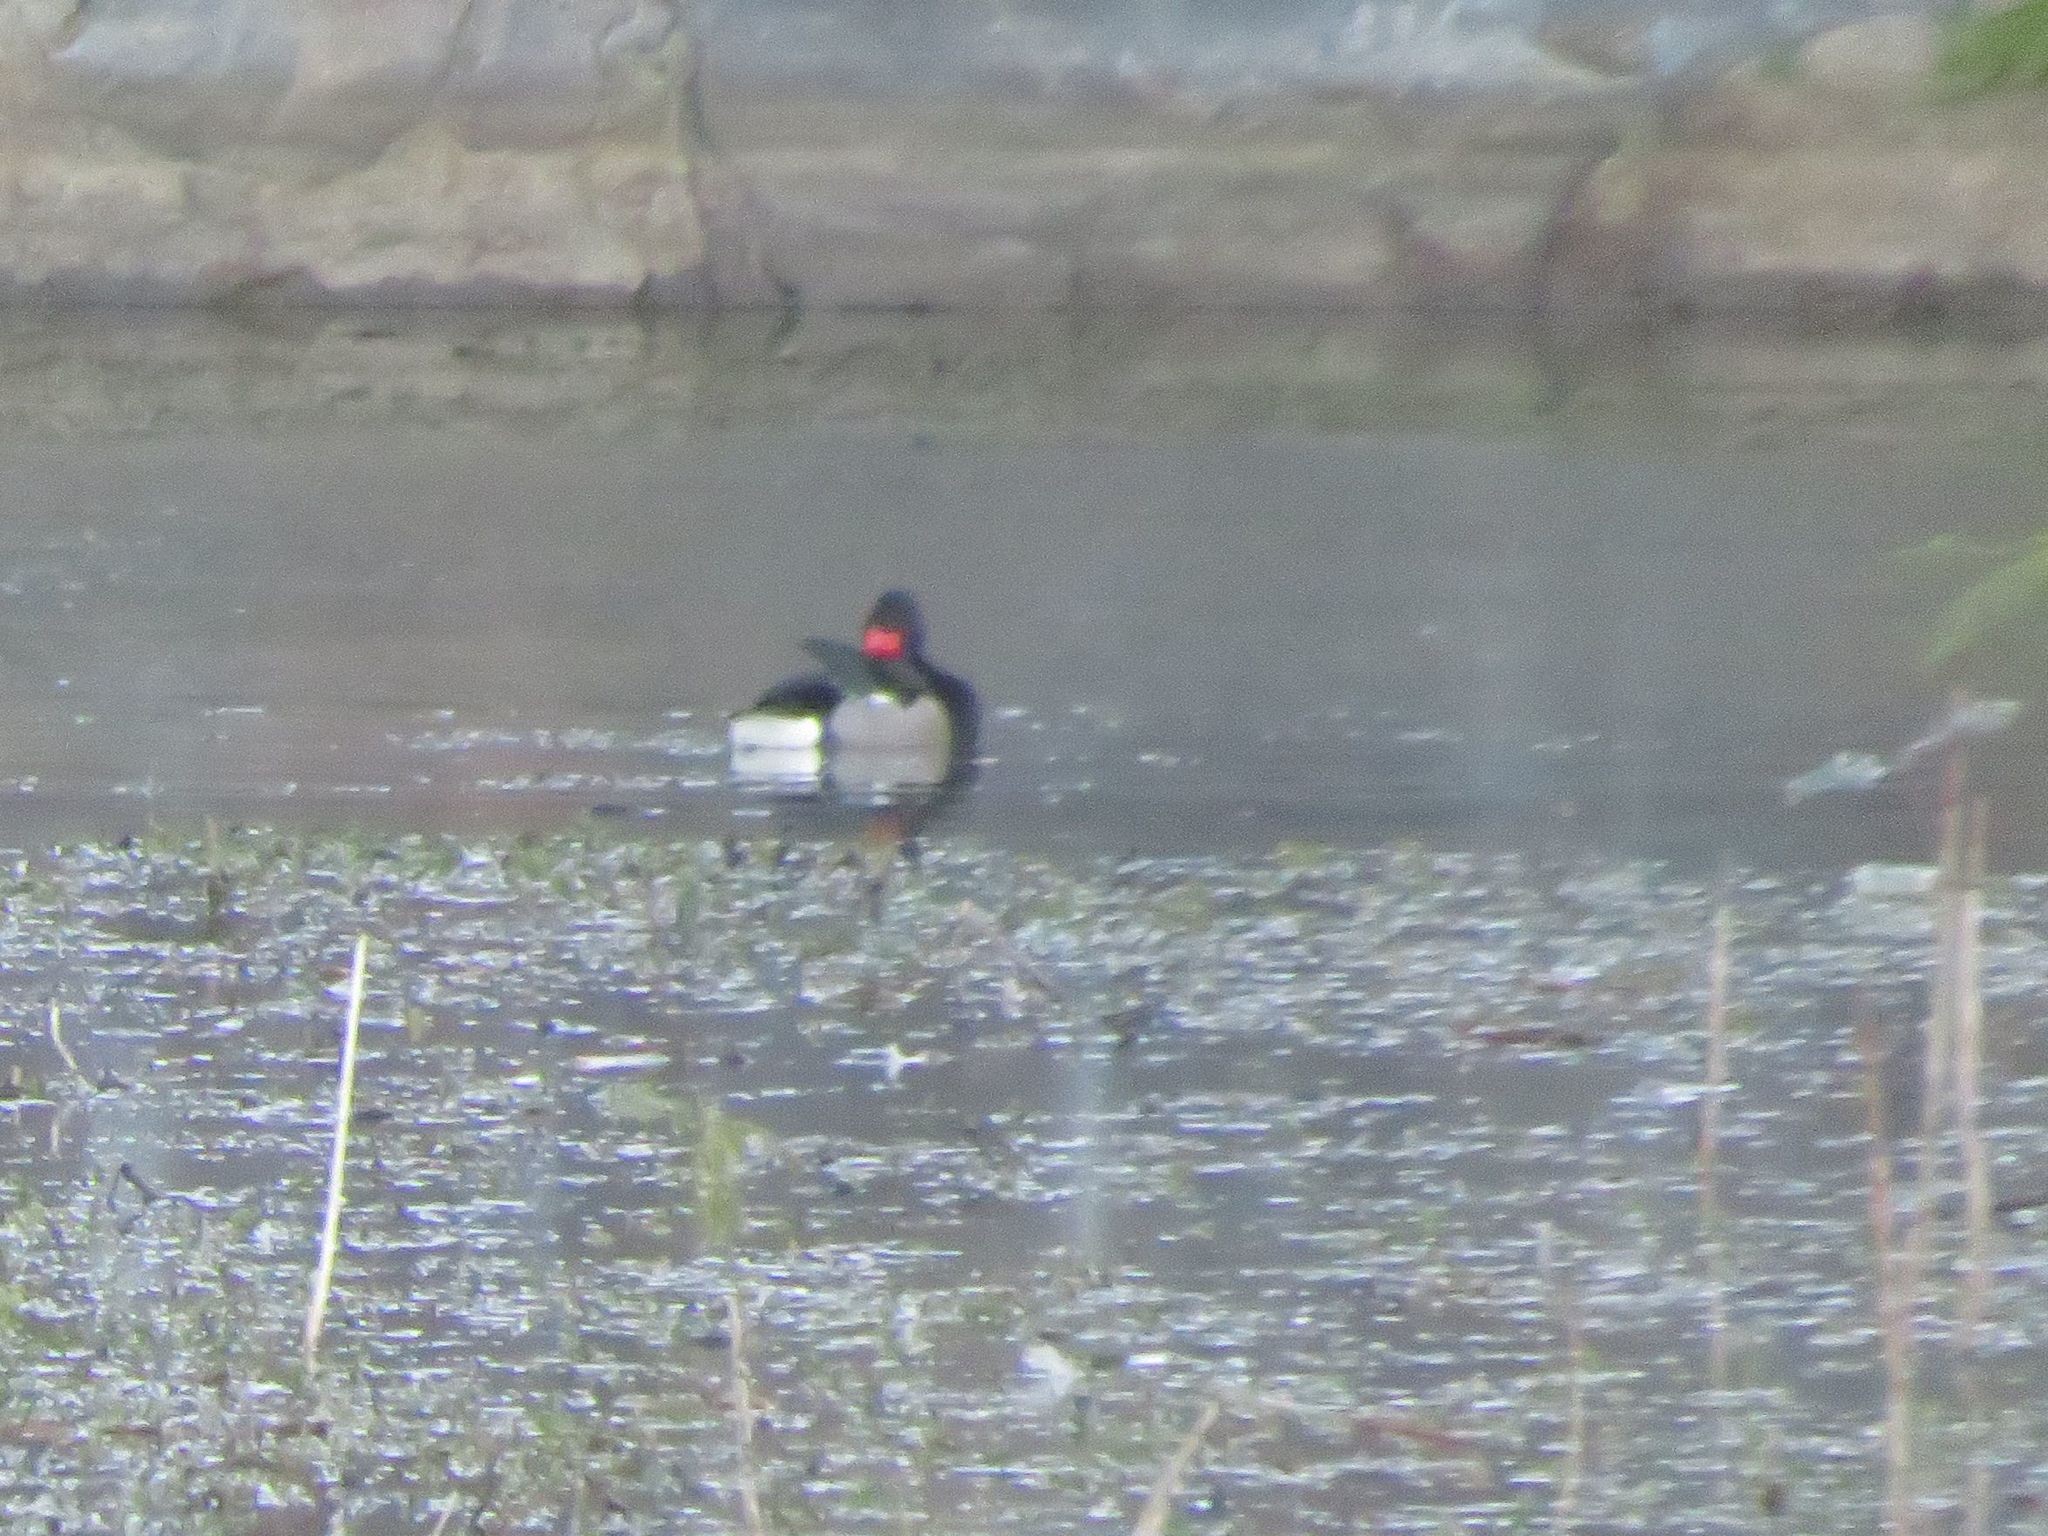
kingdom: Animalia
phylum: Chordata
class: Aves
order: Anseriformes
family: Anatidae
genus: Netta
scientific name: Netta peposaca
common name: Rosy-billed pochard
